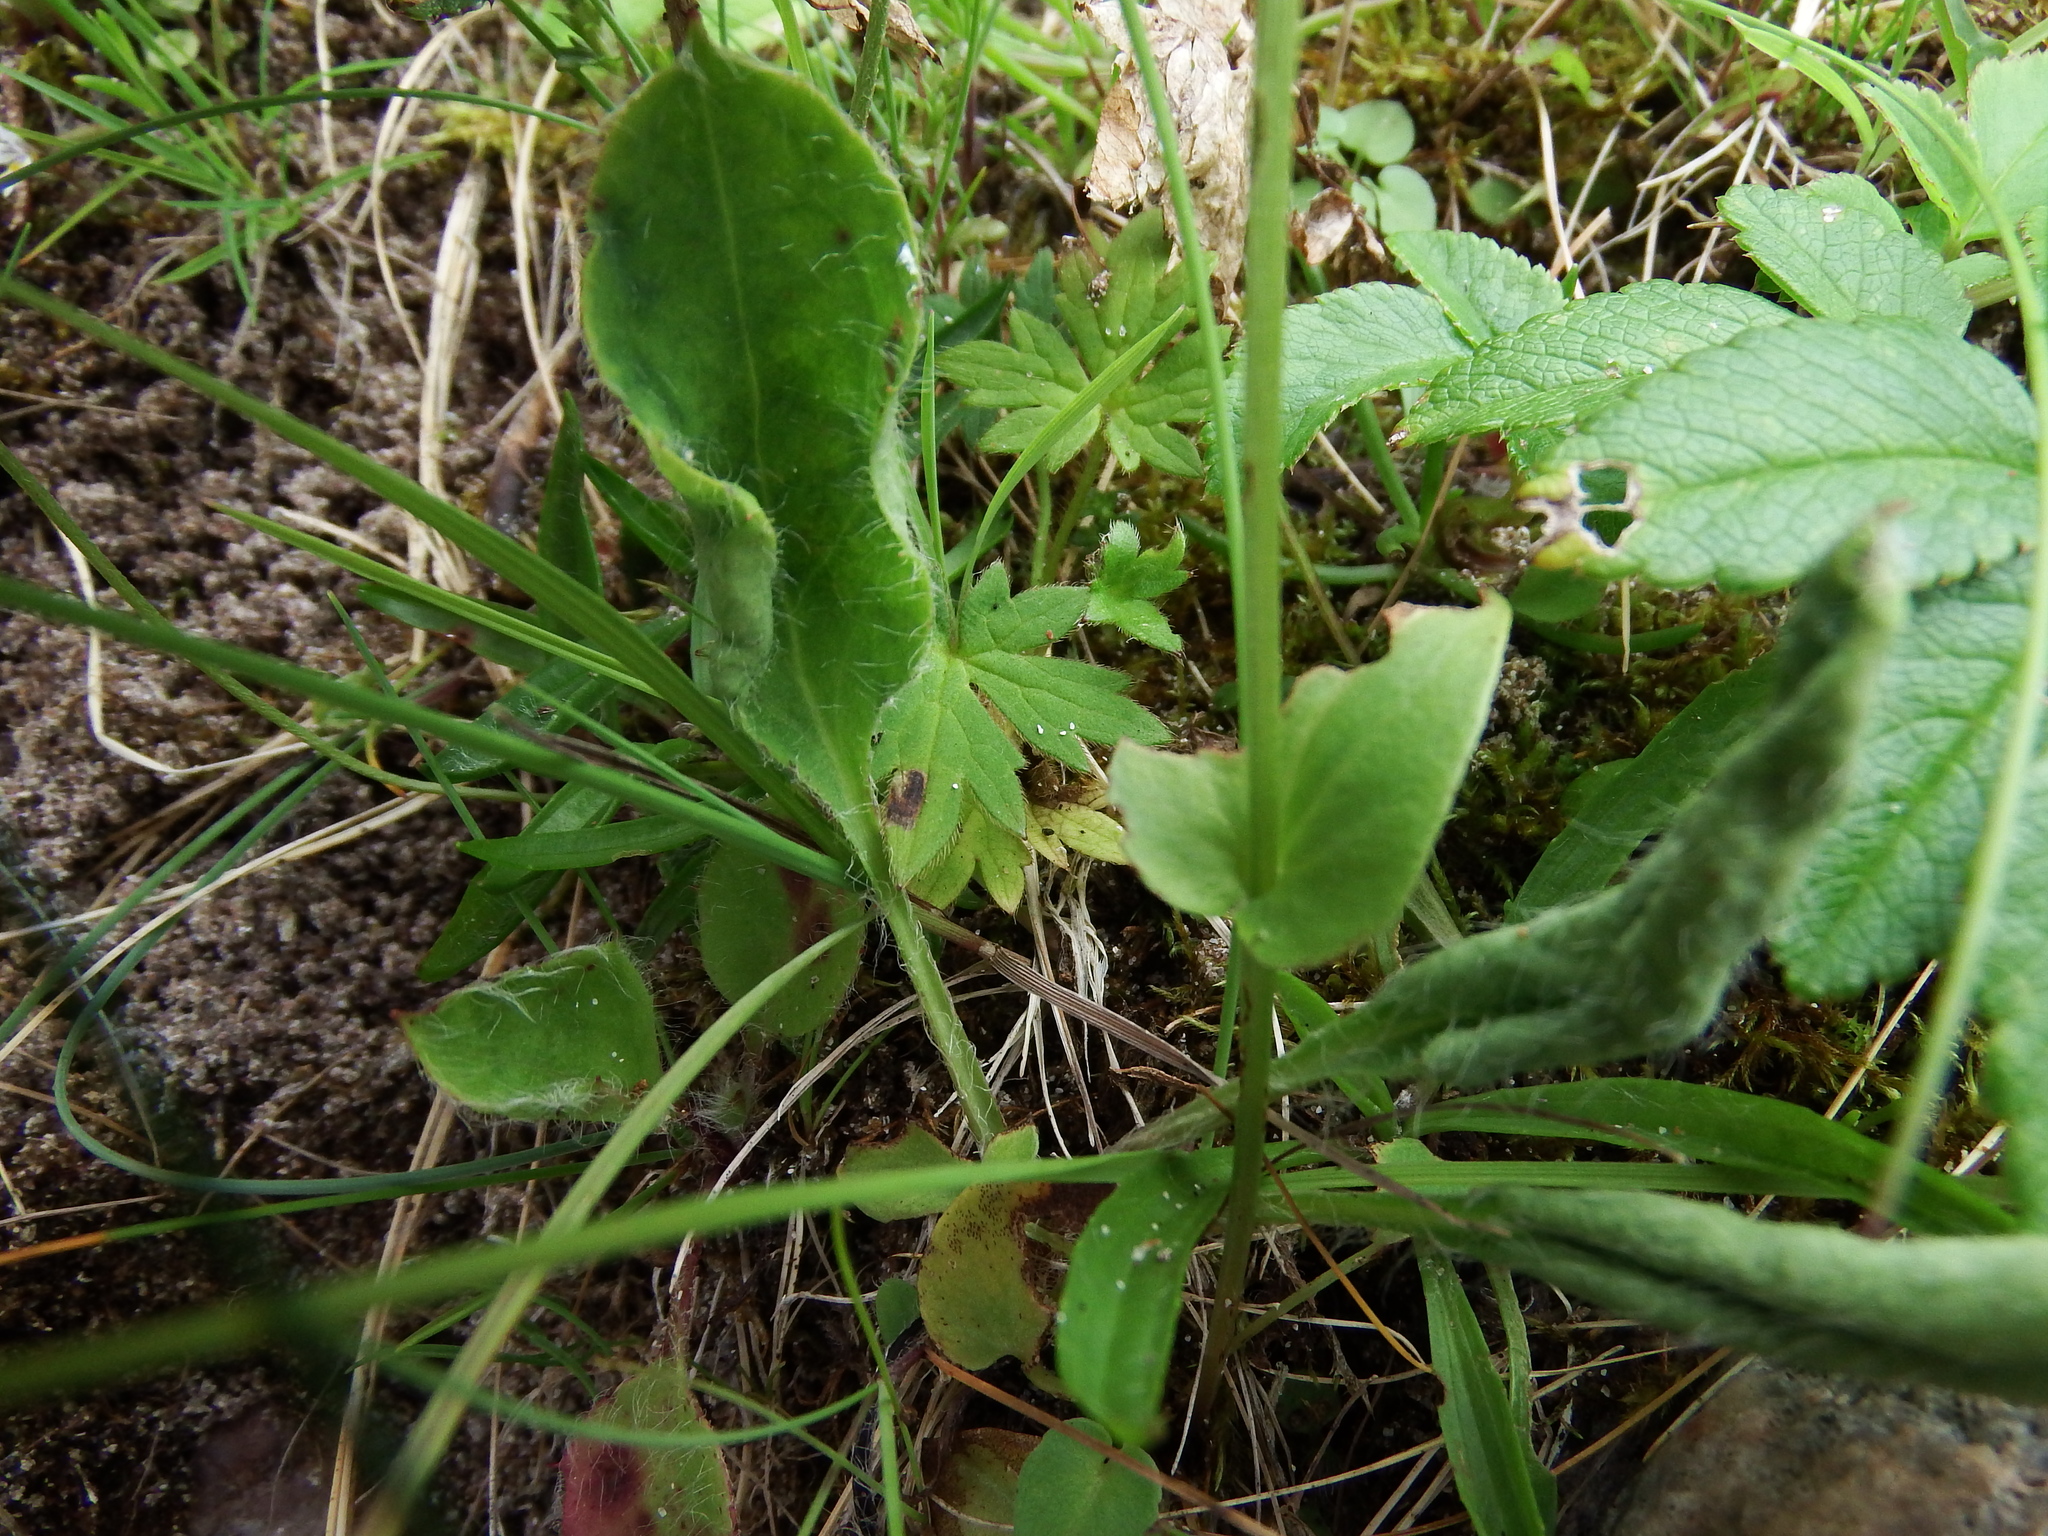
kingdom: Plantae
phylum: Tracheophyta
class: Magnoliopsida
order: Celastrales
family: Parnassiaceae
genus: Parnassia
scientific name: Parnassia palustris
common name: Grass-of-parnassus
